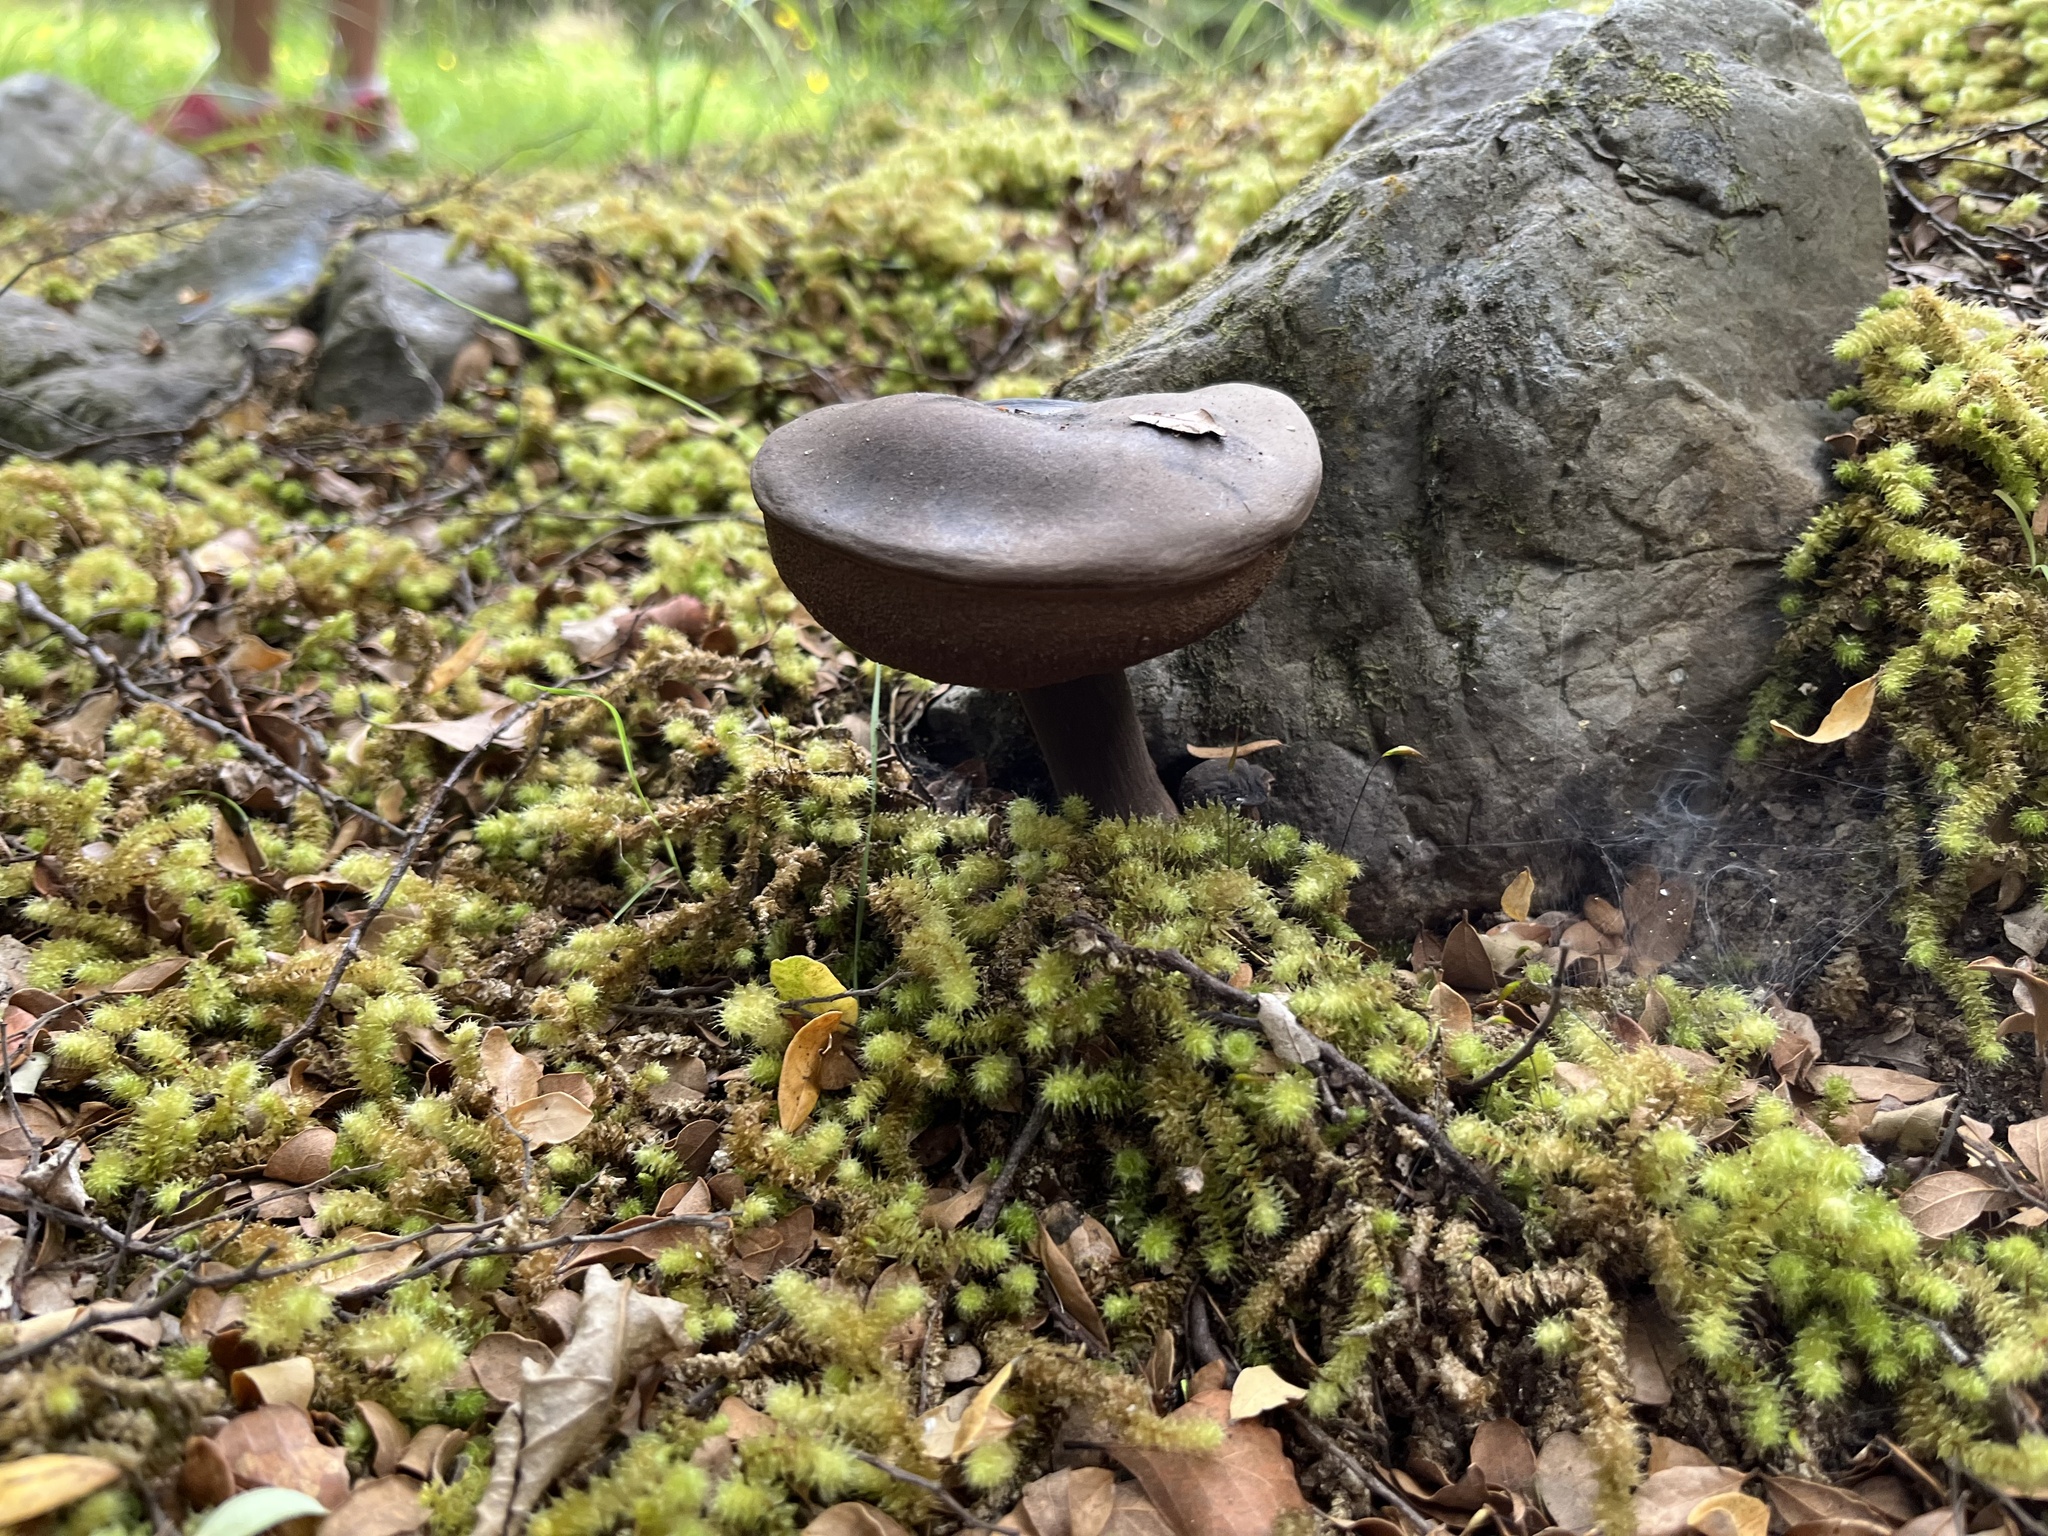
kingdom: Fungi
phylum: Basidiomycota
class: Agaricomycetes
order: Boletales
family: Boletaceae
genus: Porphyrellus
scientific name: Porphyrellus formosus
